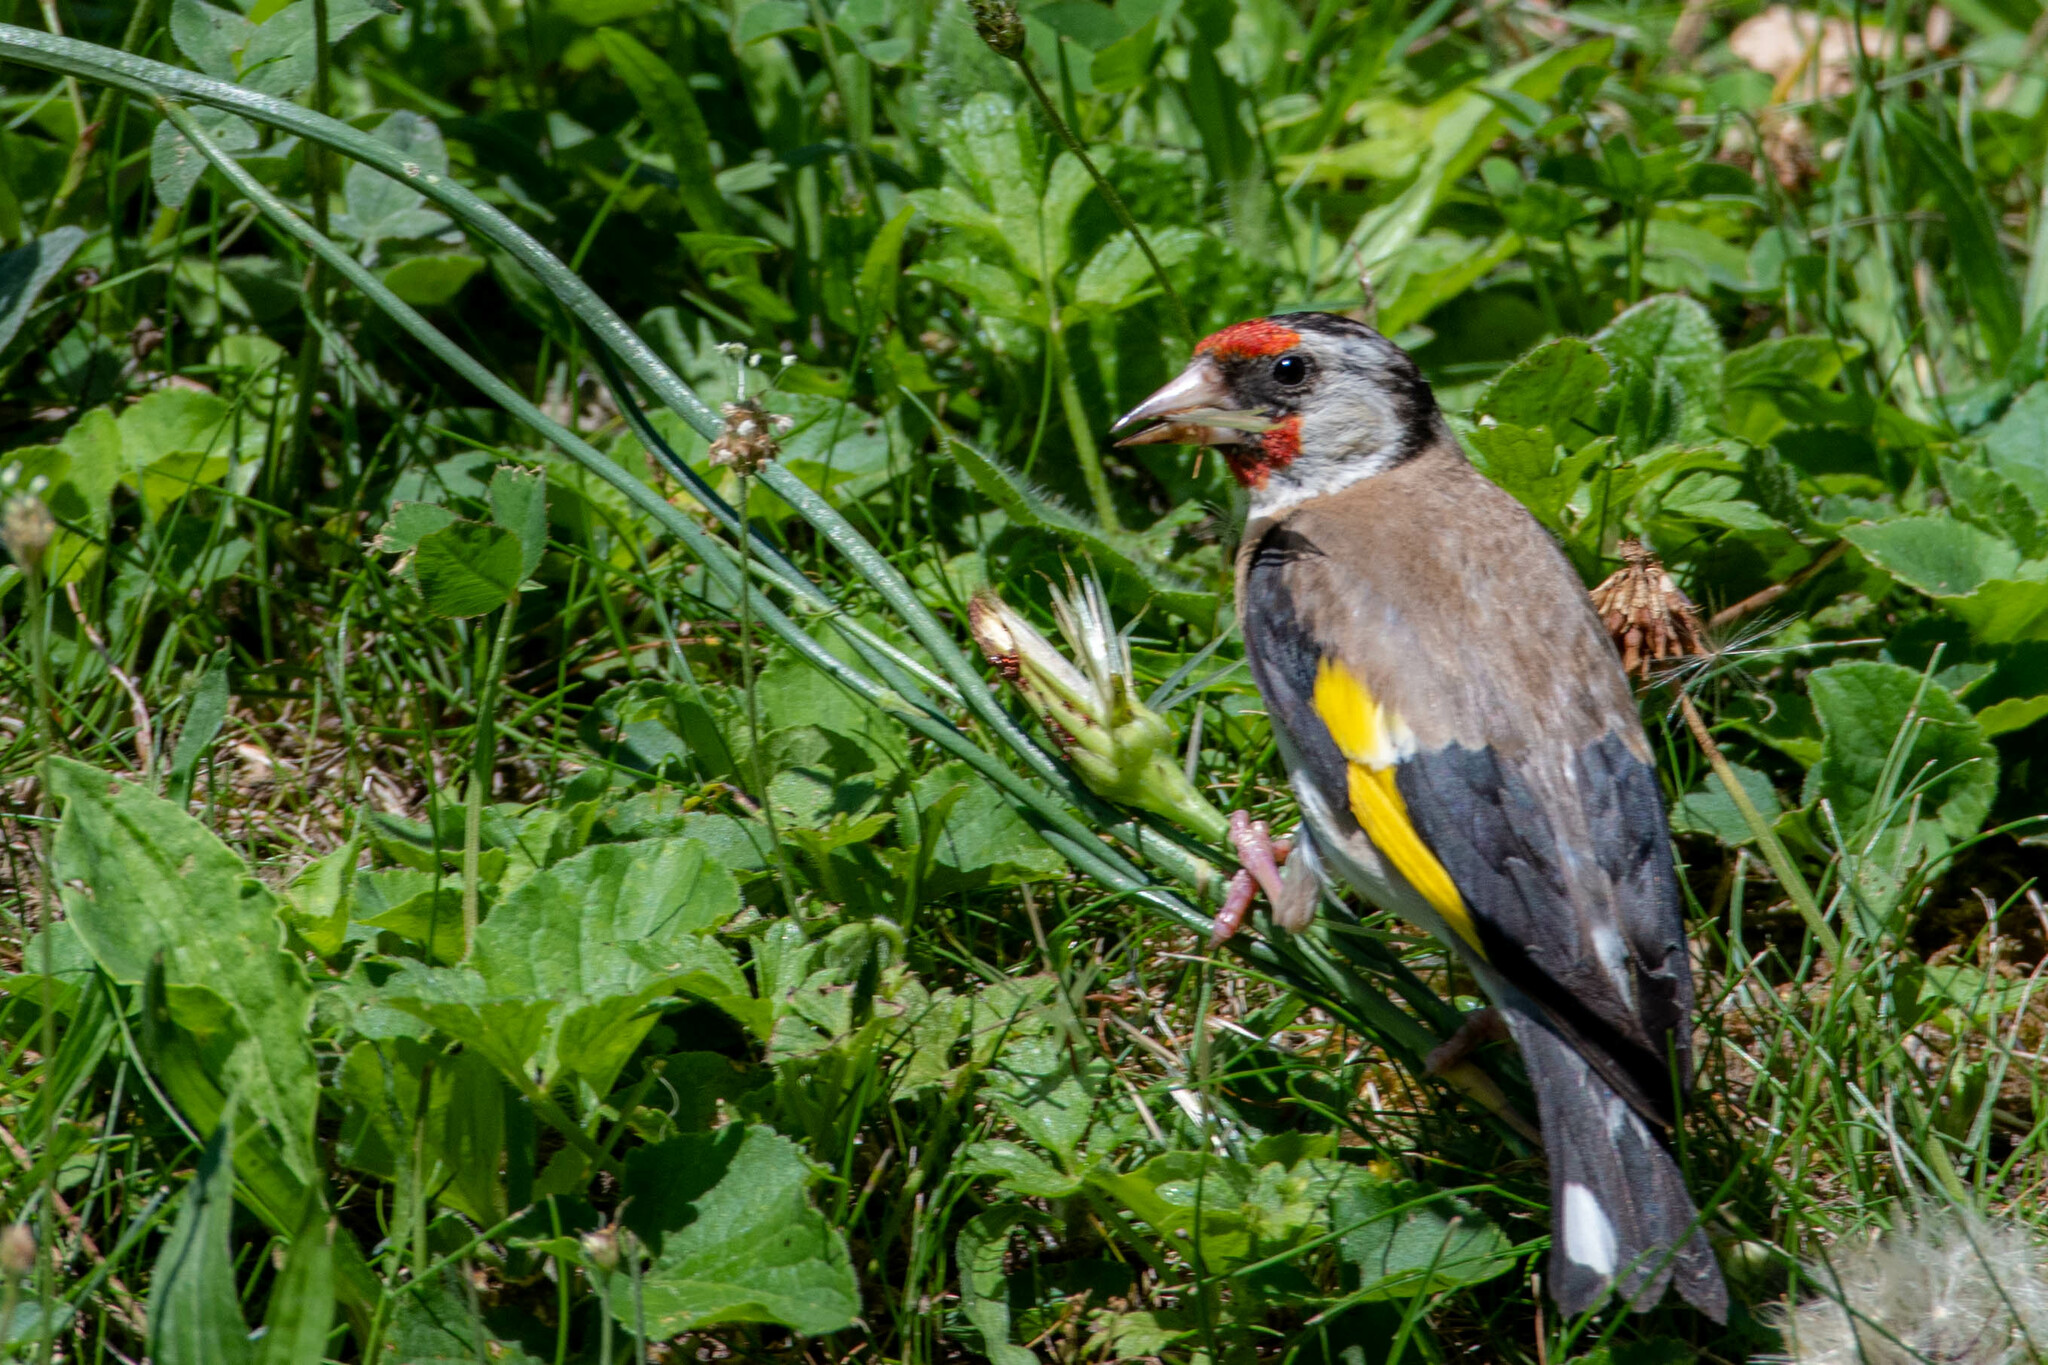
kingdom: Animalia
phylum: Chordata
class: Aves
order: Passeriformes
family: Fringillidae
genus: Carduelis
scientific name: Carduelis carduelis
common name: European goldfinch
